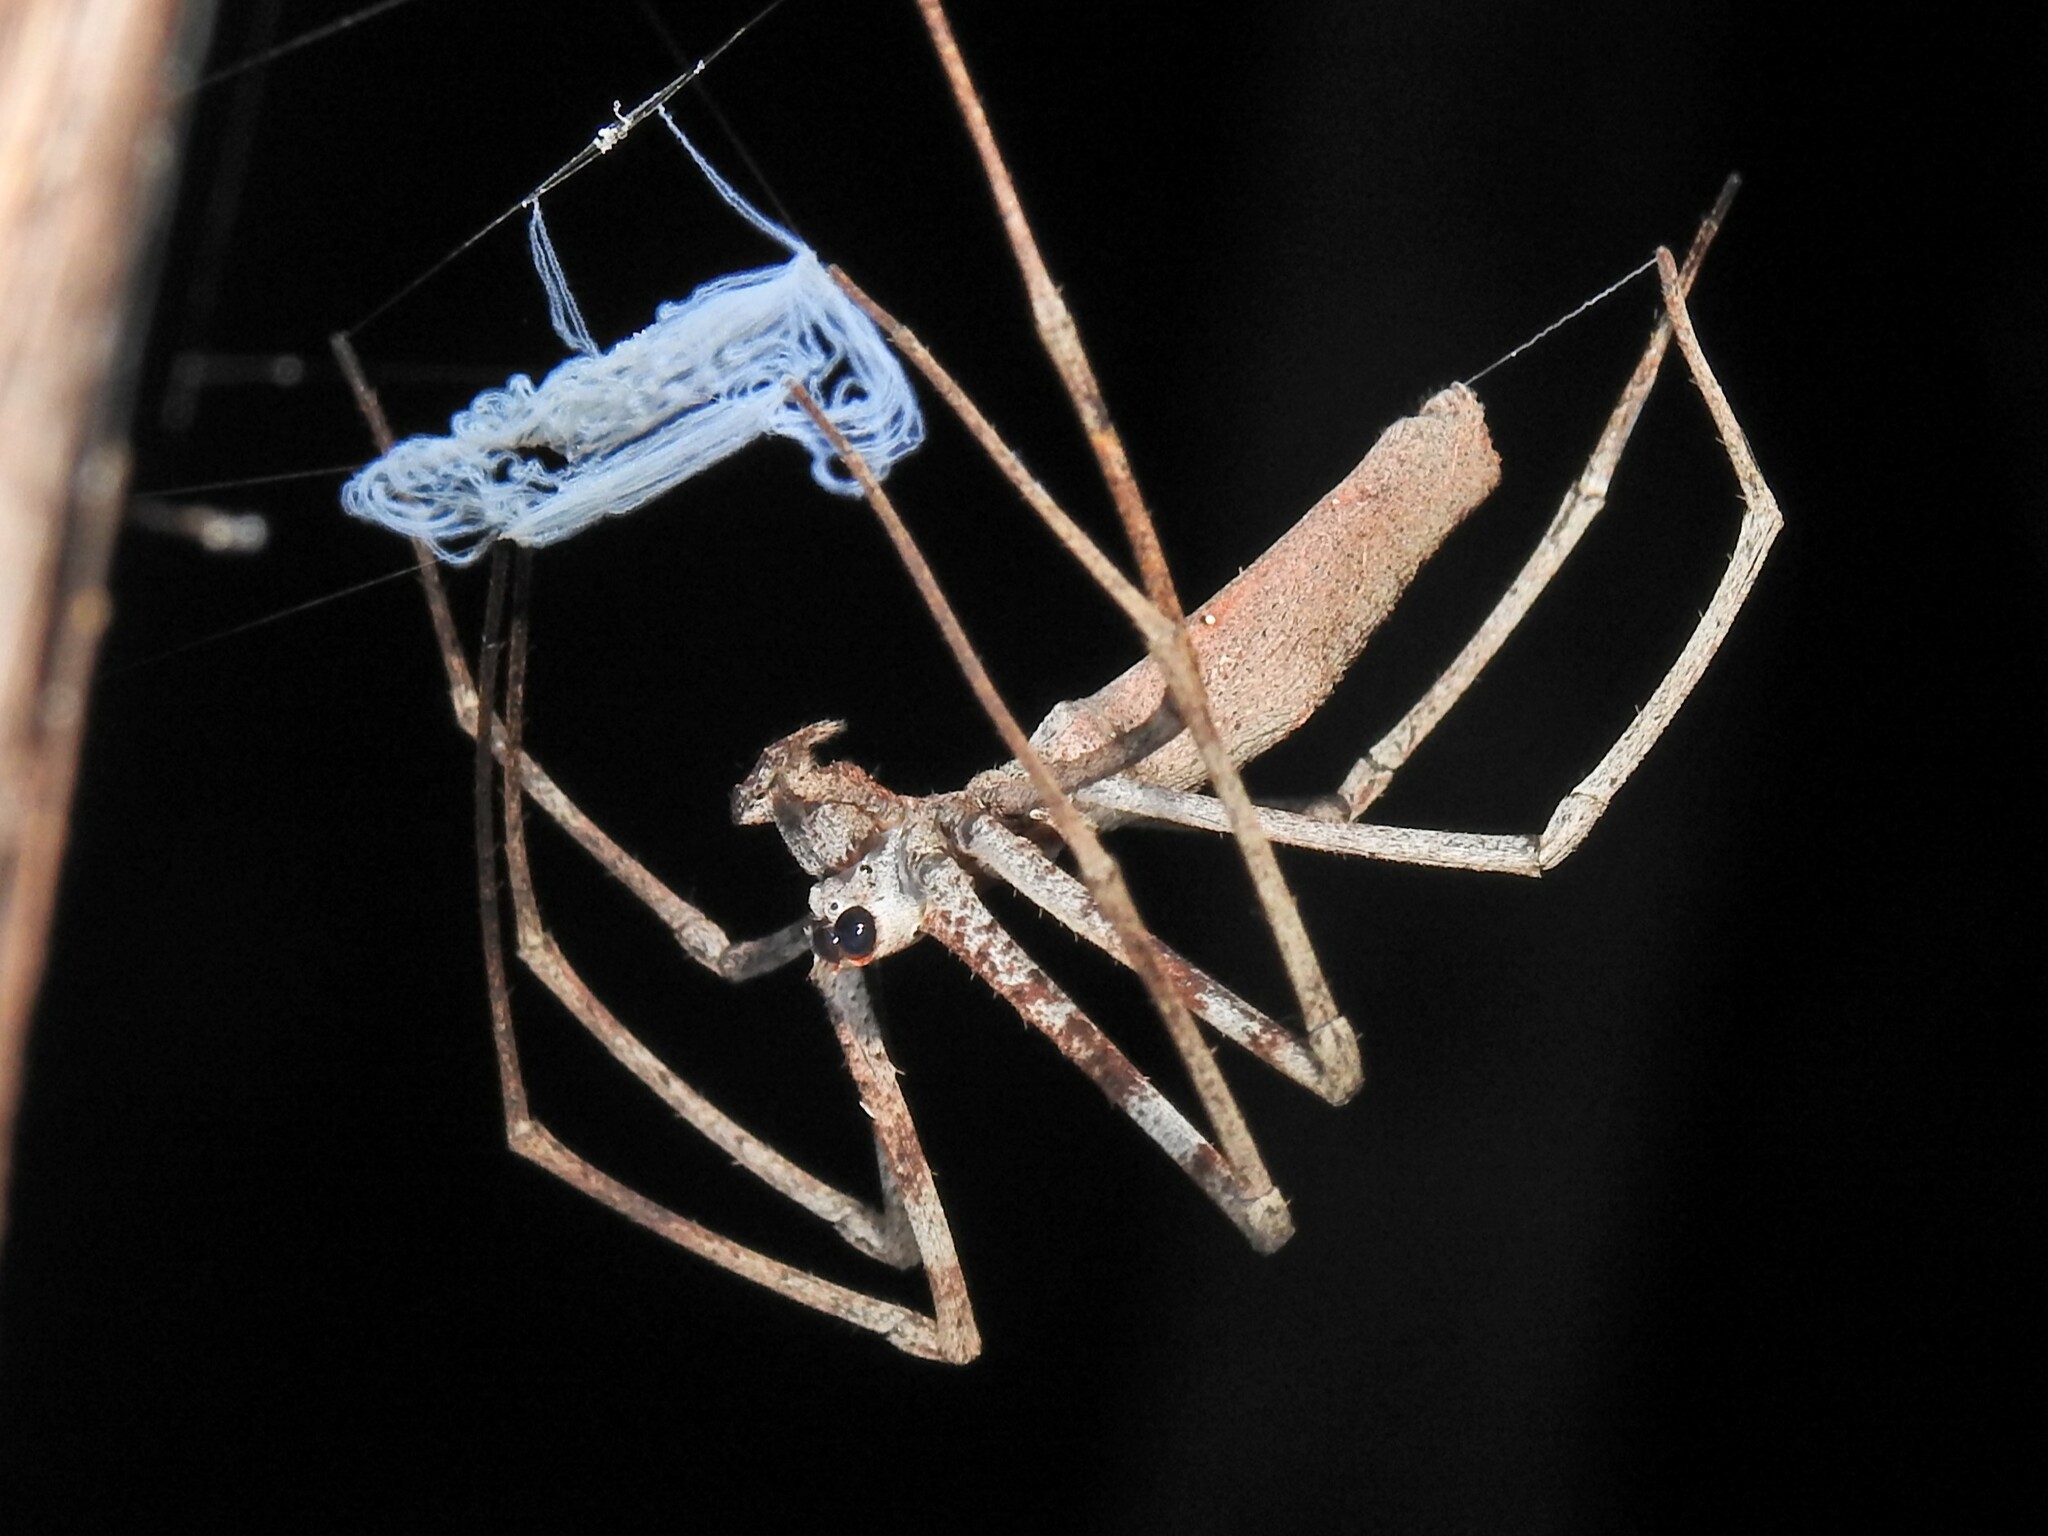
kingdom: Animalia
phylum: Arthropoda
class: Arachnida
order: Araneae
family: Deinopidae
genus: Deinopis
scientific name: Deinopis subrufa
